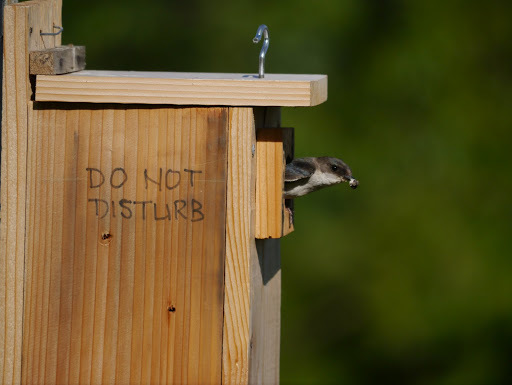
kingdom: Animalia
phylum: Chordata
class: Aves
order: Passeriformes
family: Hirundinidae
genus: Tachycineta
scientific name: Tachycineta bicolor
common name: Tree swallow
